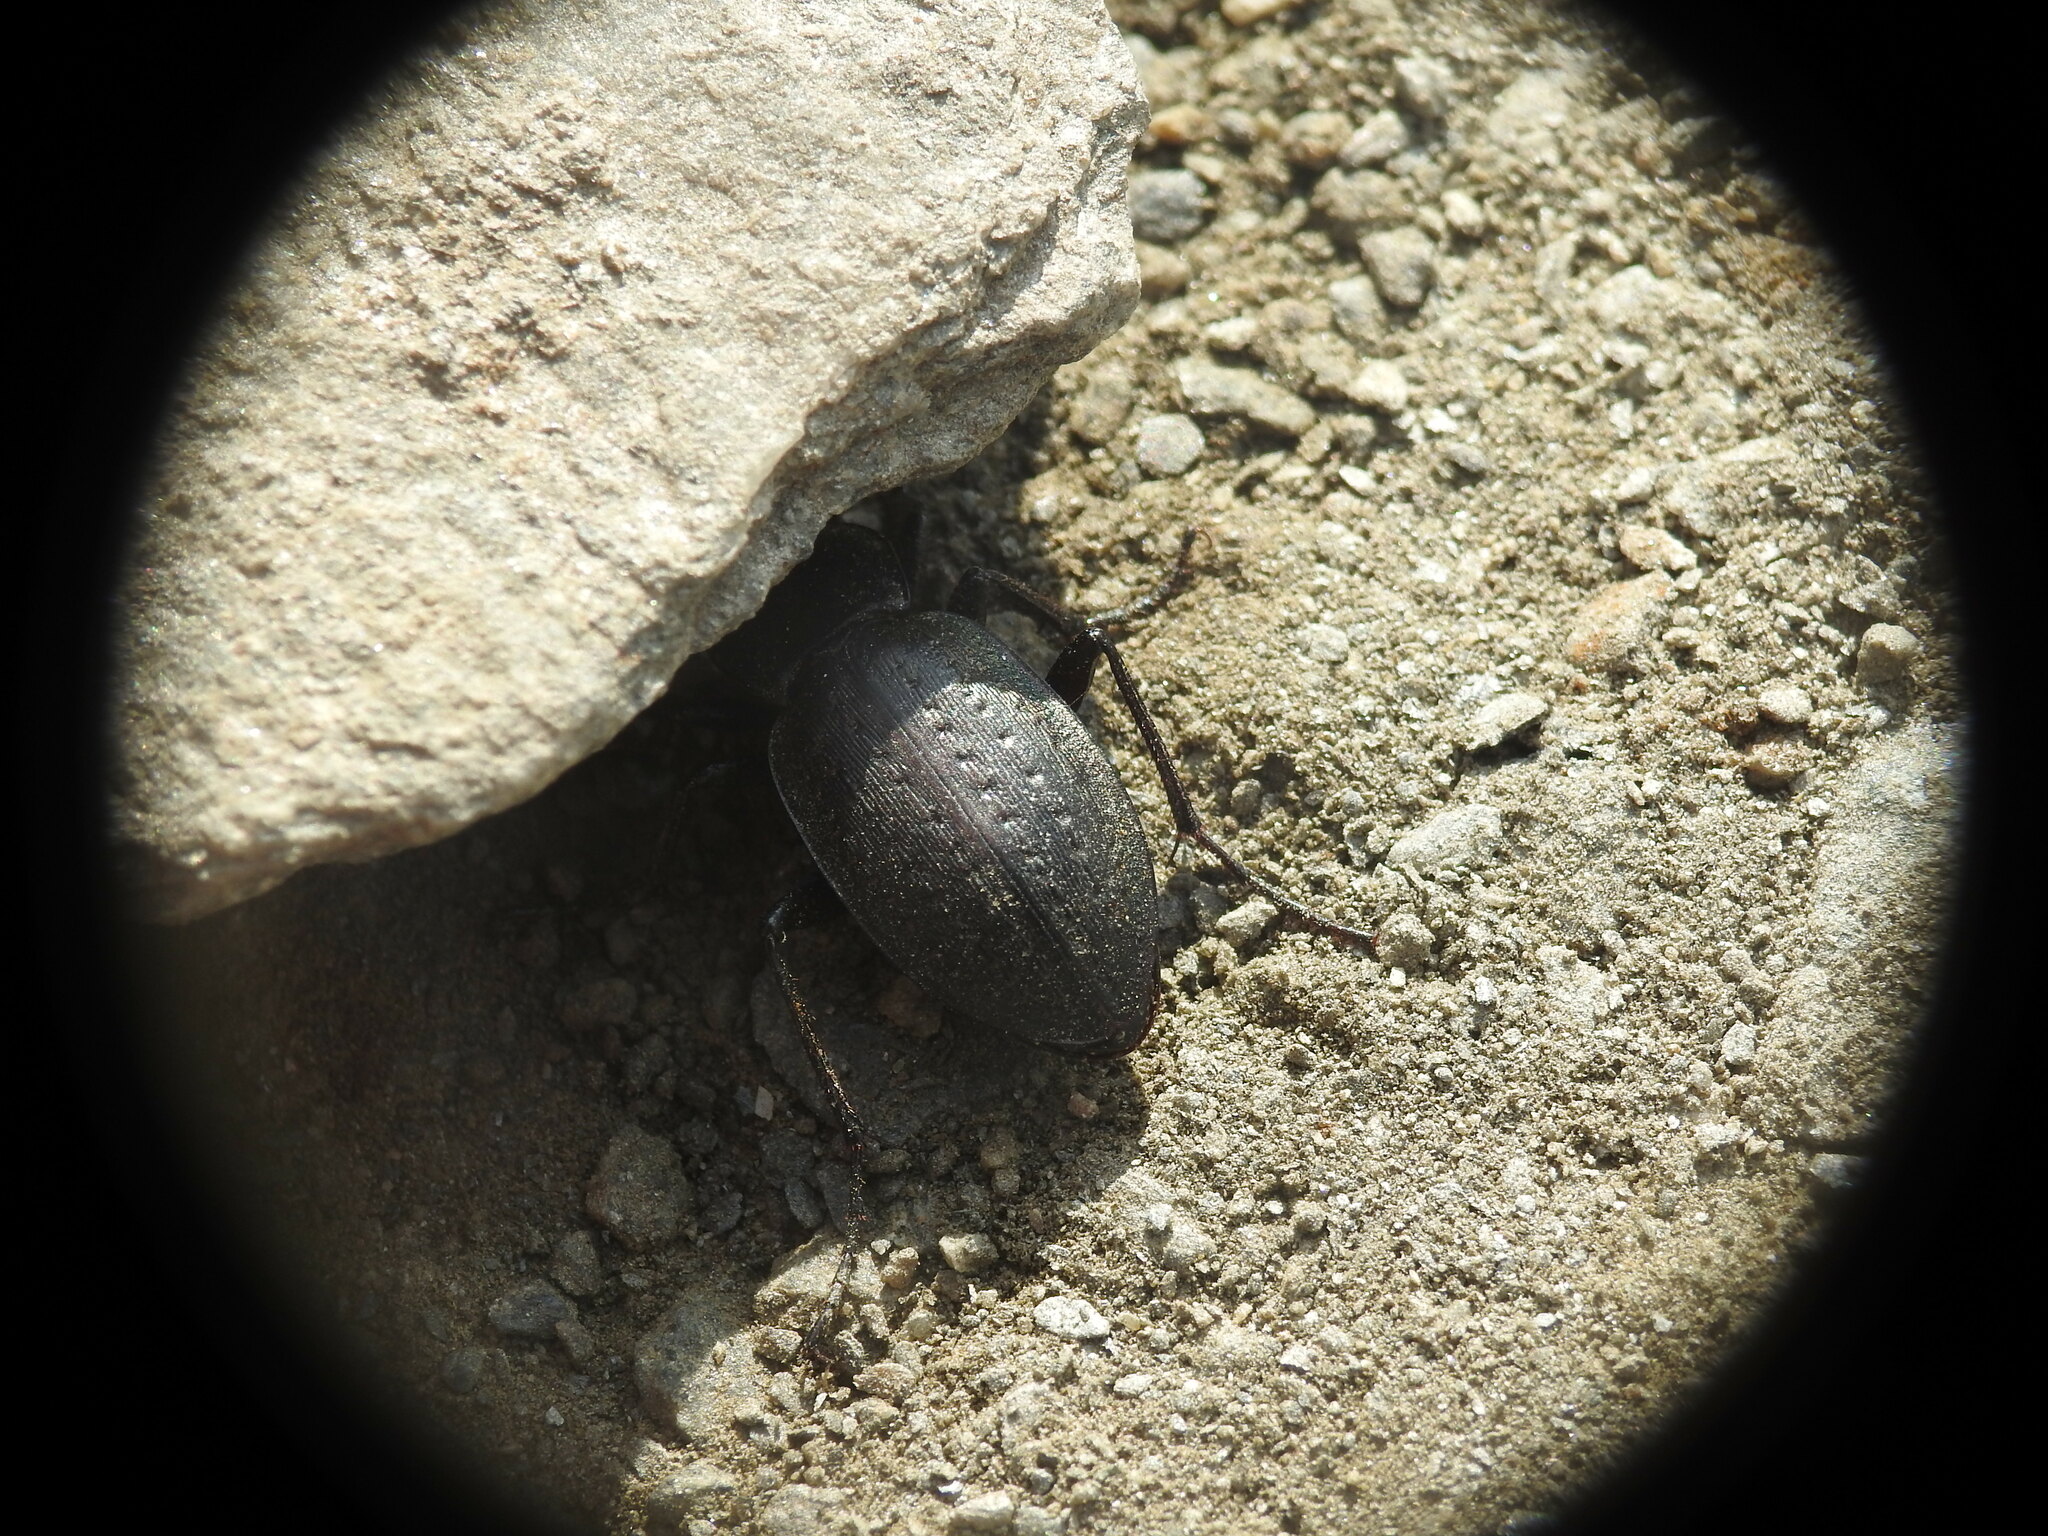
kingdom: Animalia
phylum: Arthropoda
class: Insecta
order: Coleoptera
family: Carabidae
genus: Carabus
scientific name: Carabus fairmairei
